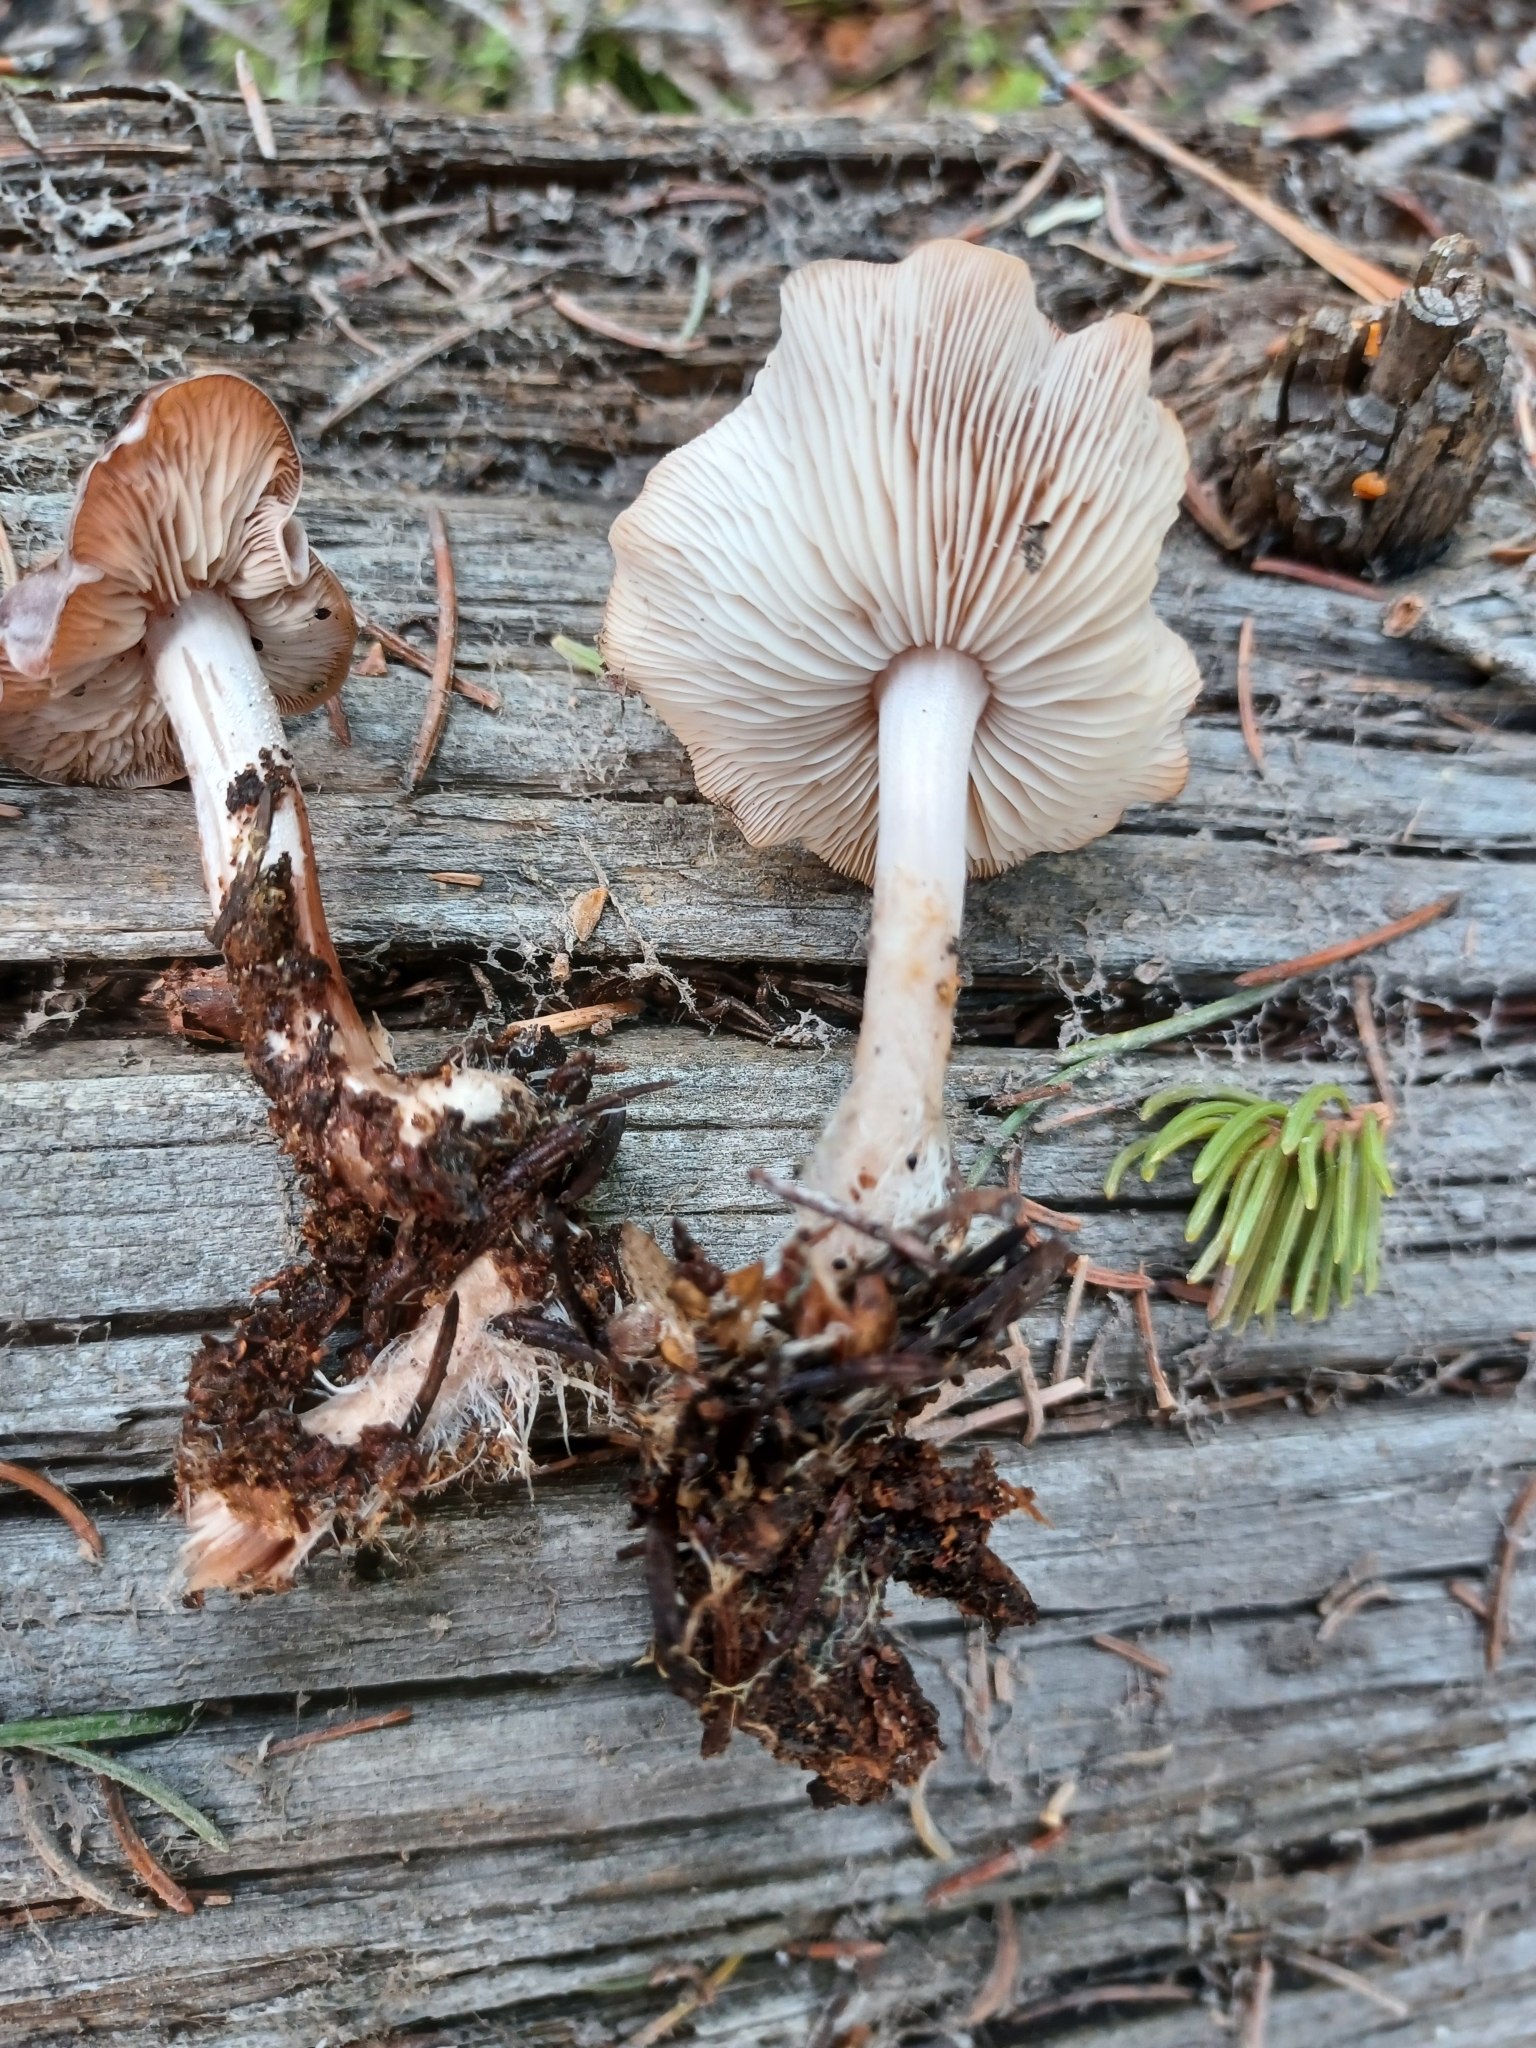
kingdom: Fungi
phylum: Basidiomycota
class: Agaricomycetes
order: Agaricales
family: Tricholomataceae
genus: Clitocybe
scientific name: Clitocybe albirhiza
